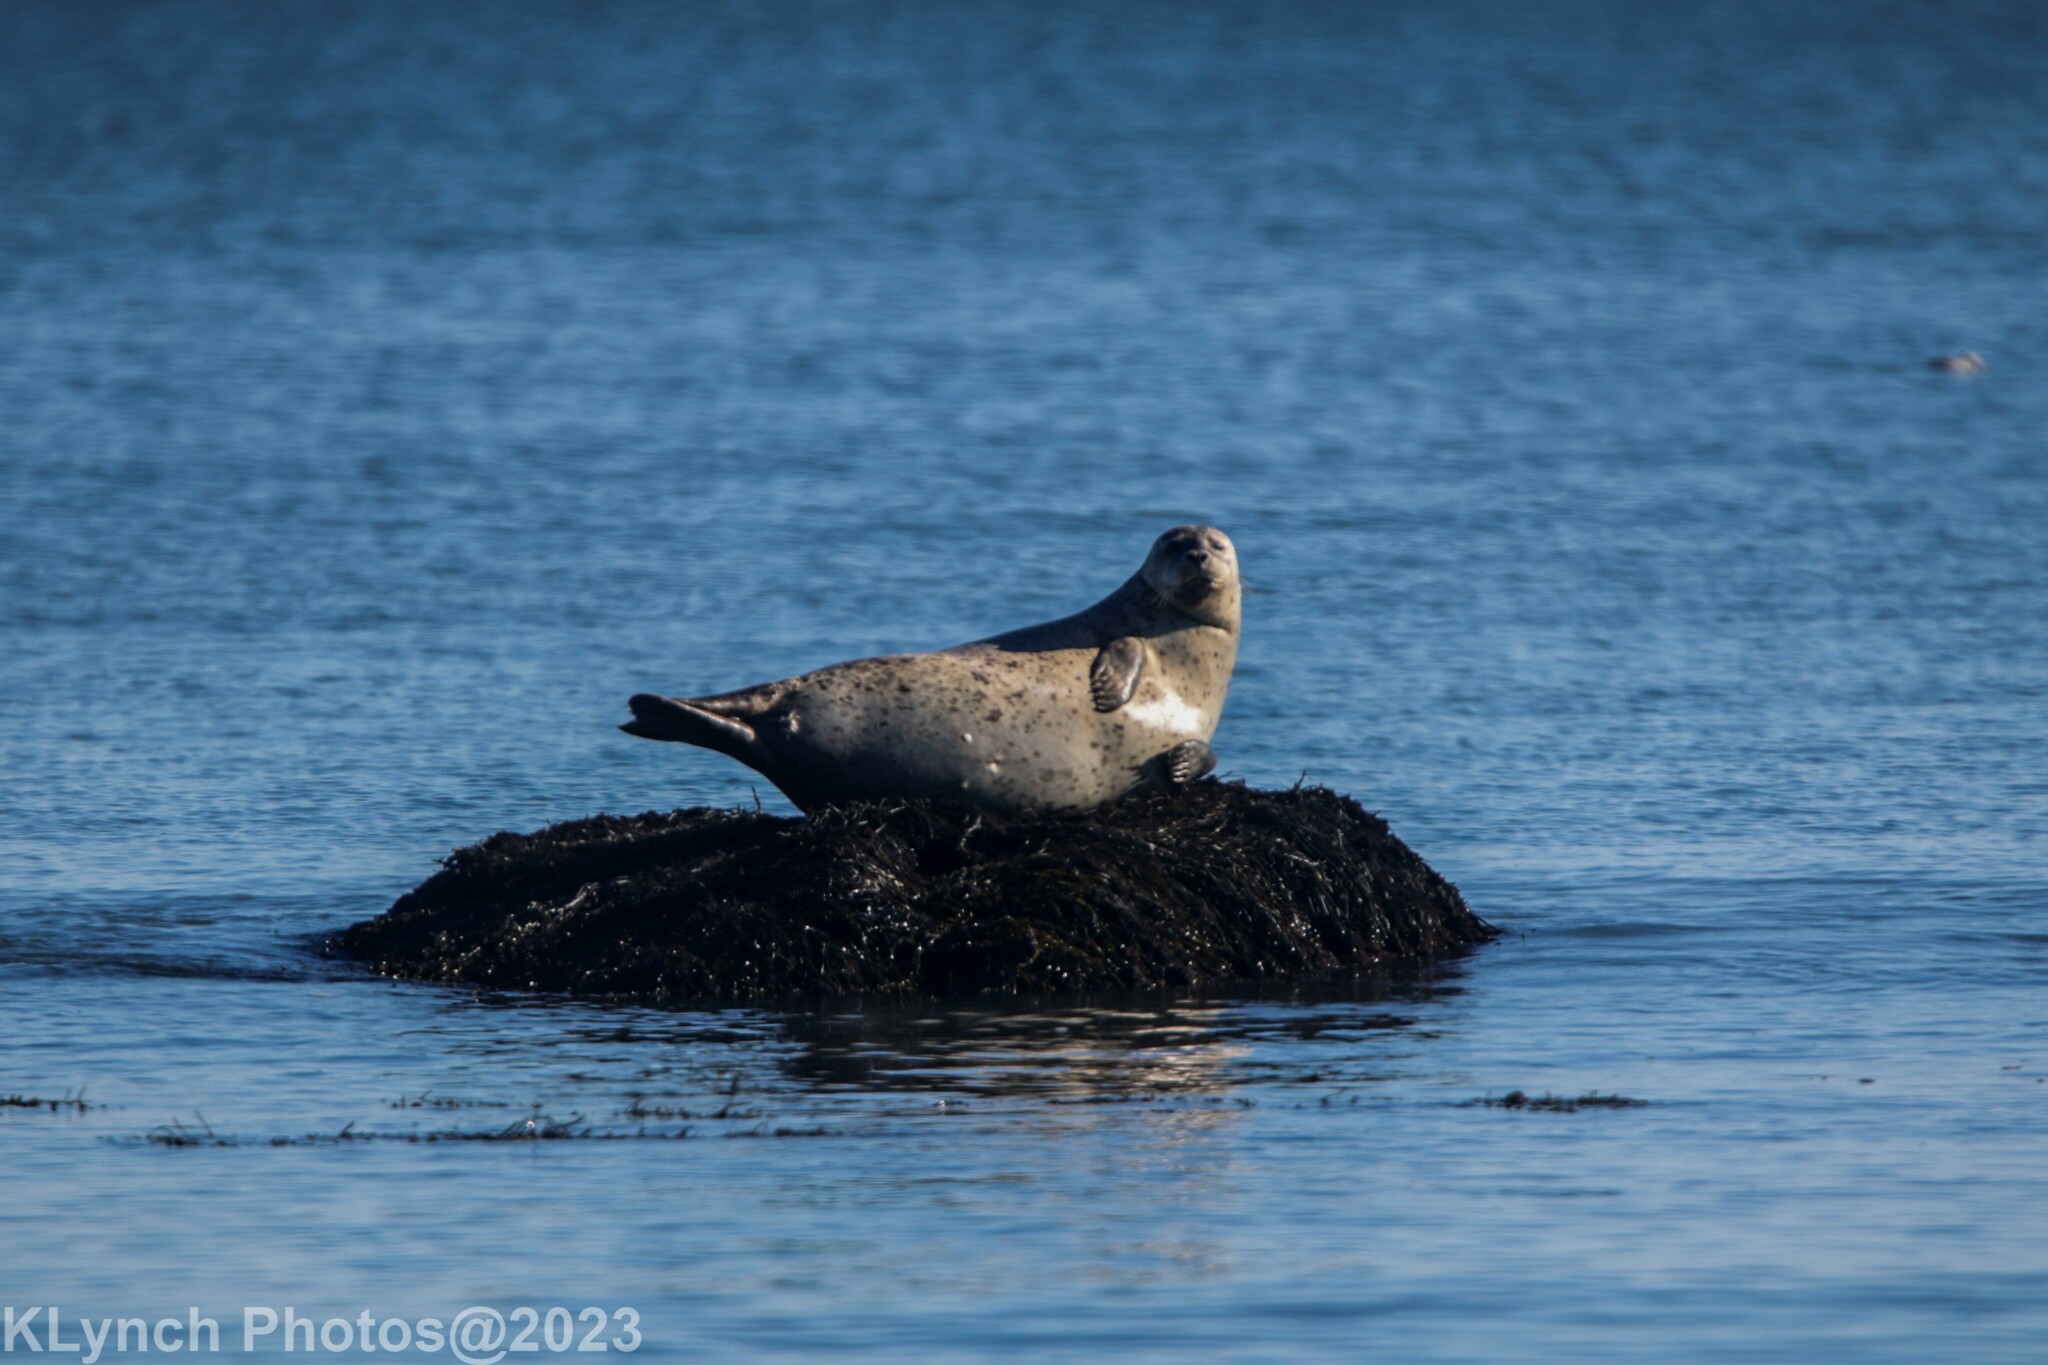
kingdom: Animalia
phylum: Chordata
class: Mammalia
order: Carnivora
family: Phocidae
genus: Phoca
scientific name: Phoca vitulina
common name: Harbor seal
